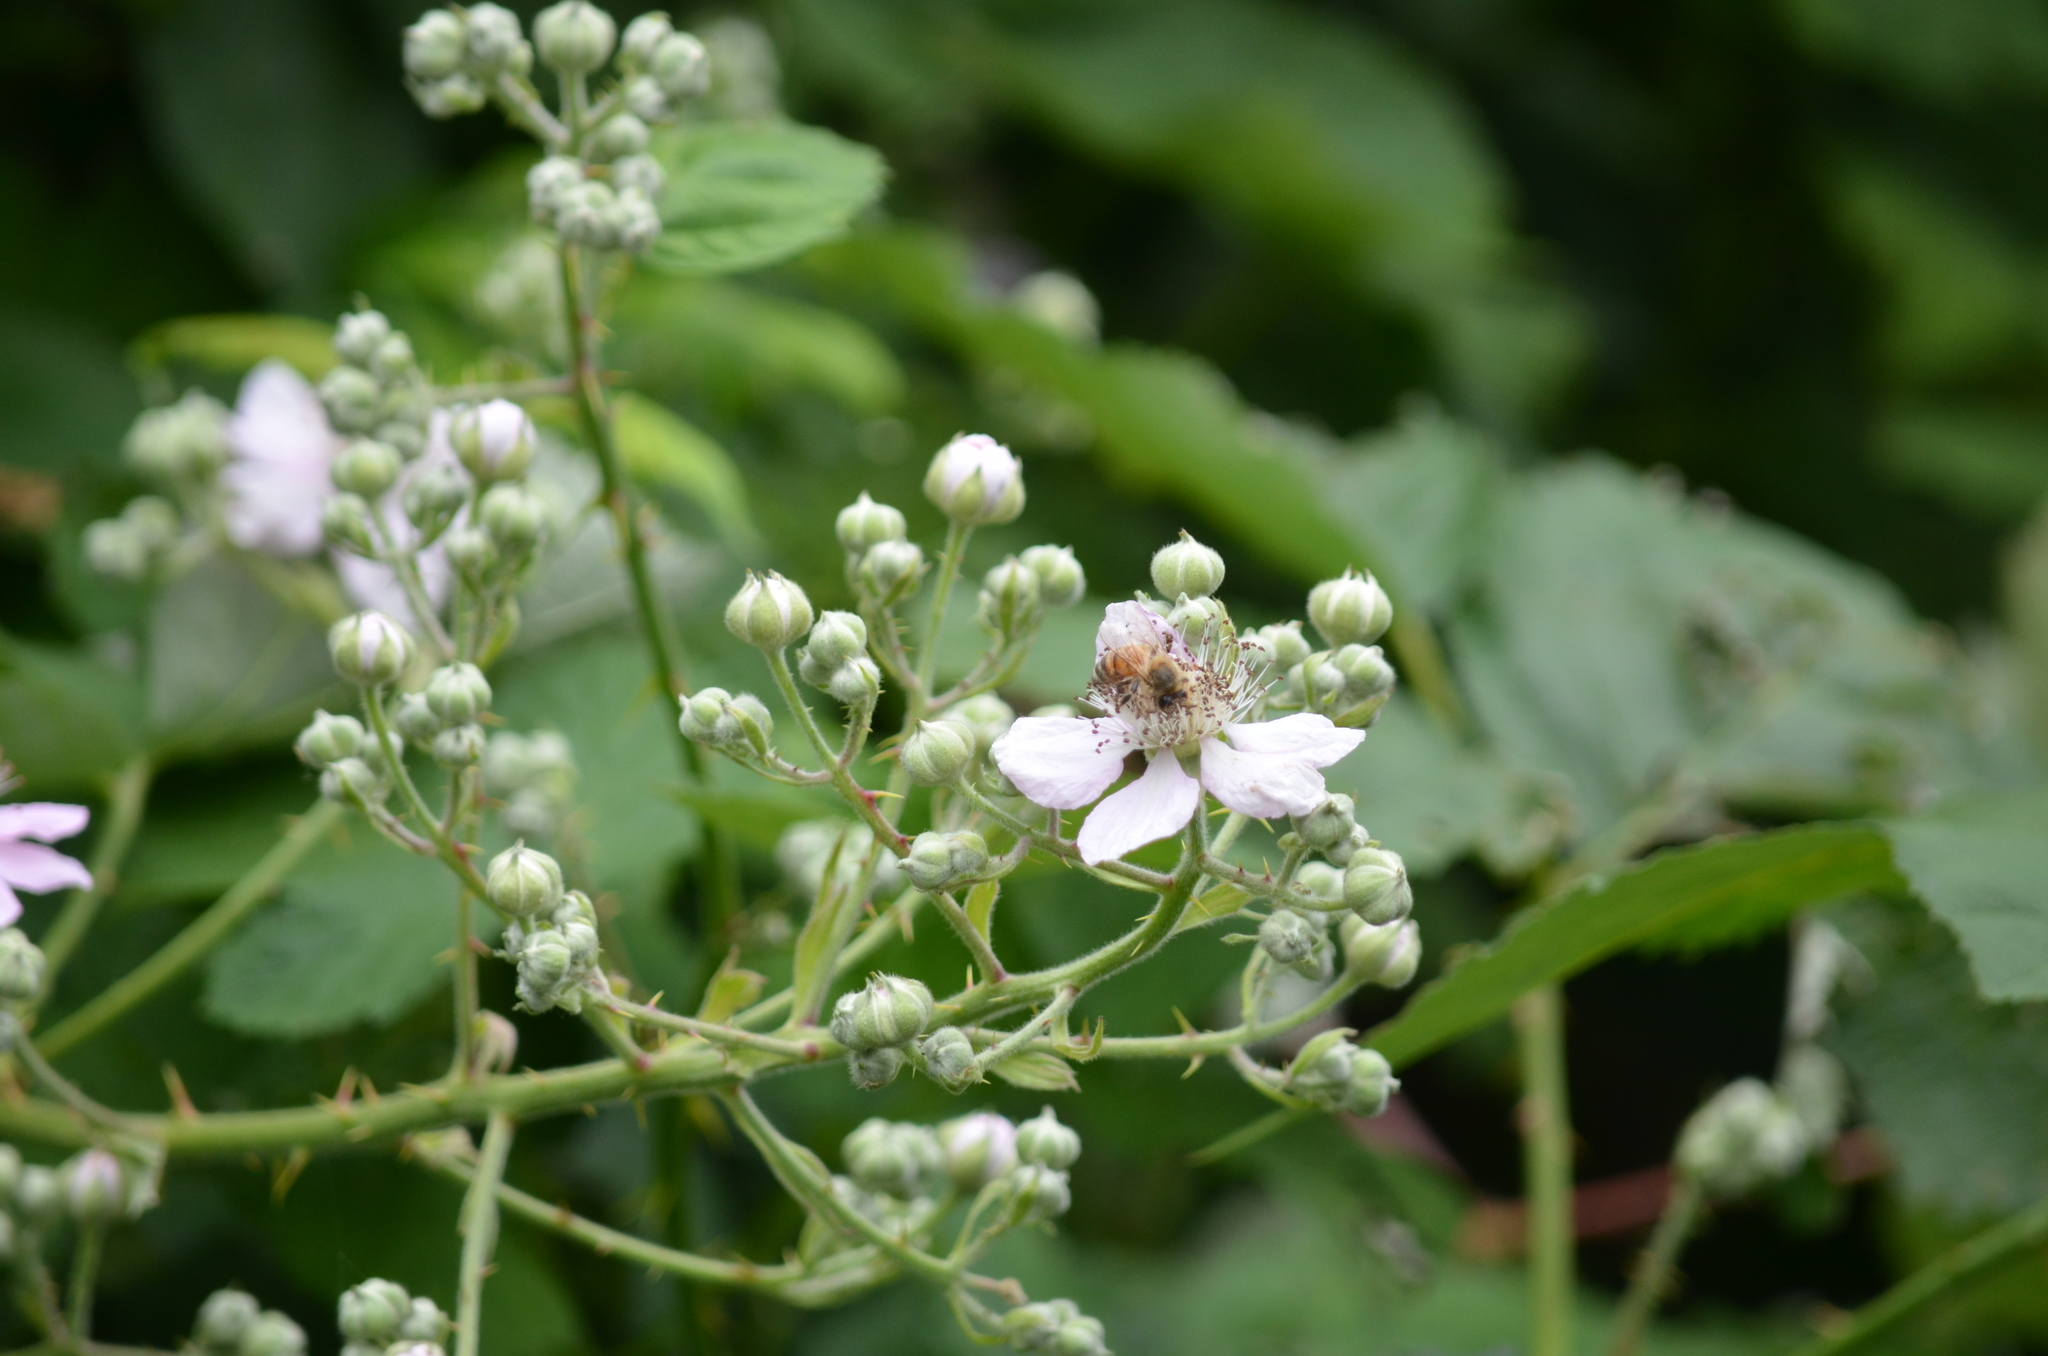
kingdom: Animalia
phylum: Arthropoda
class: Insecta
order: Hymenoptera
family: Apidae
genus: Apis
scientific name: Apis mellifera
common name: Honey bee
